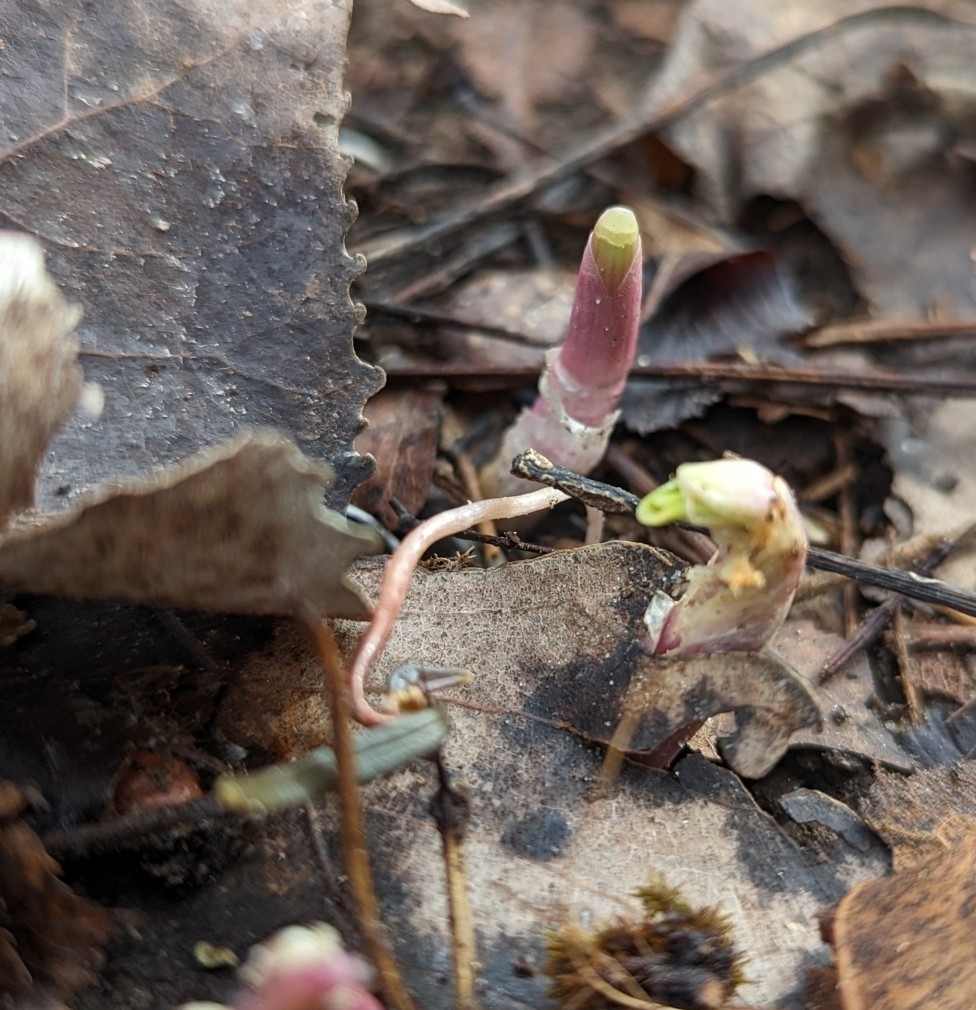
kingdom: Plantae
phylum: Tracheophyta
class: Magnoliopsida
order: Caryophyllales
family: Montiaceae
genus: Claytonia
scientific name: Claytonia virginica
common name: Virginia springbeauty
